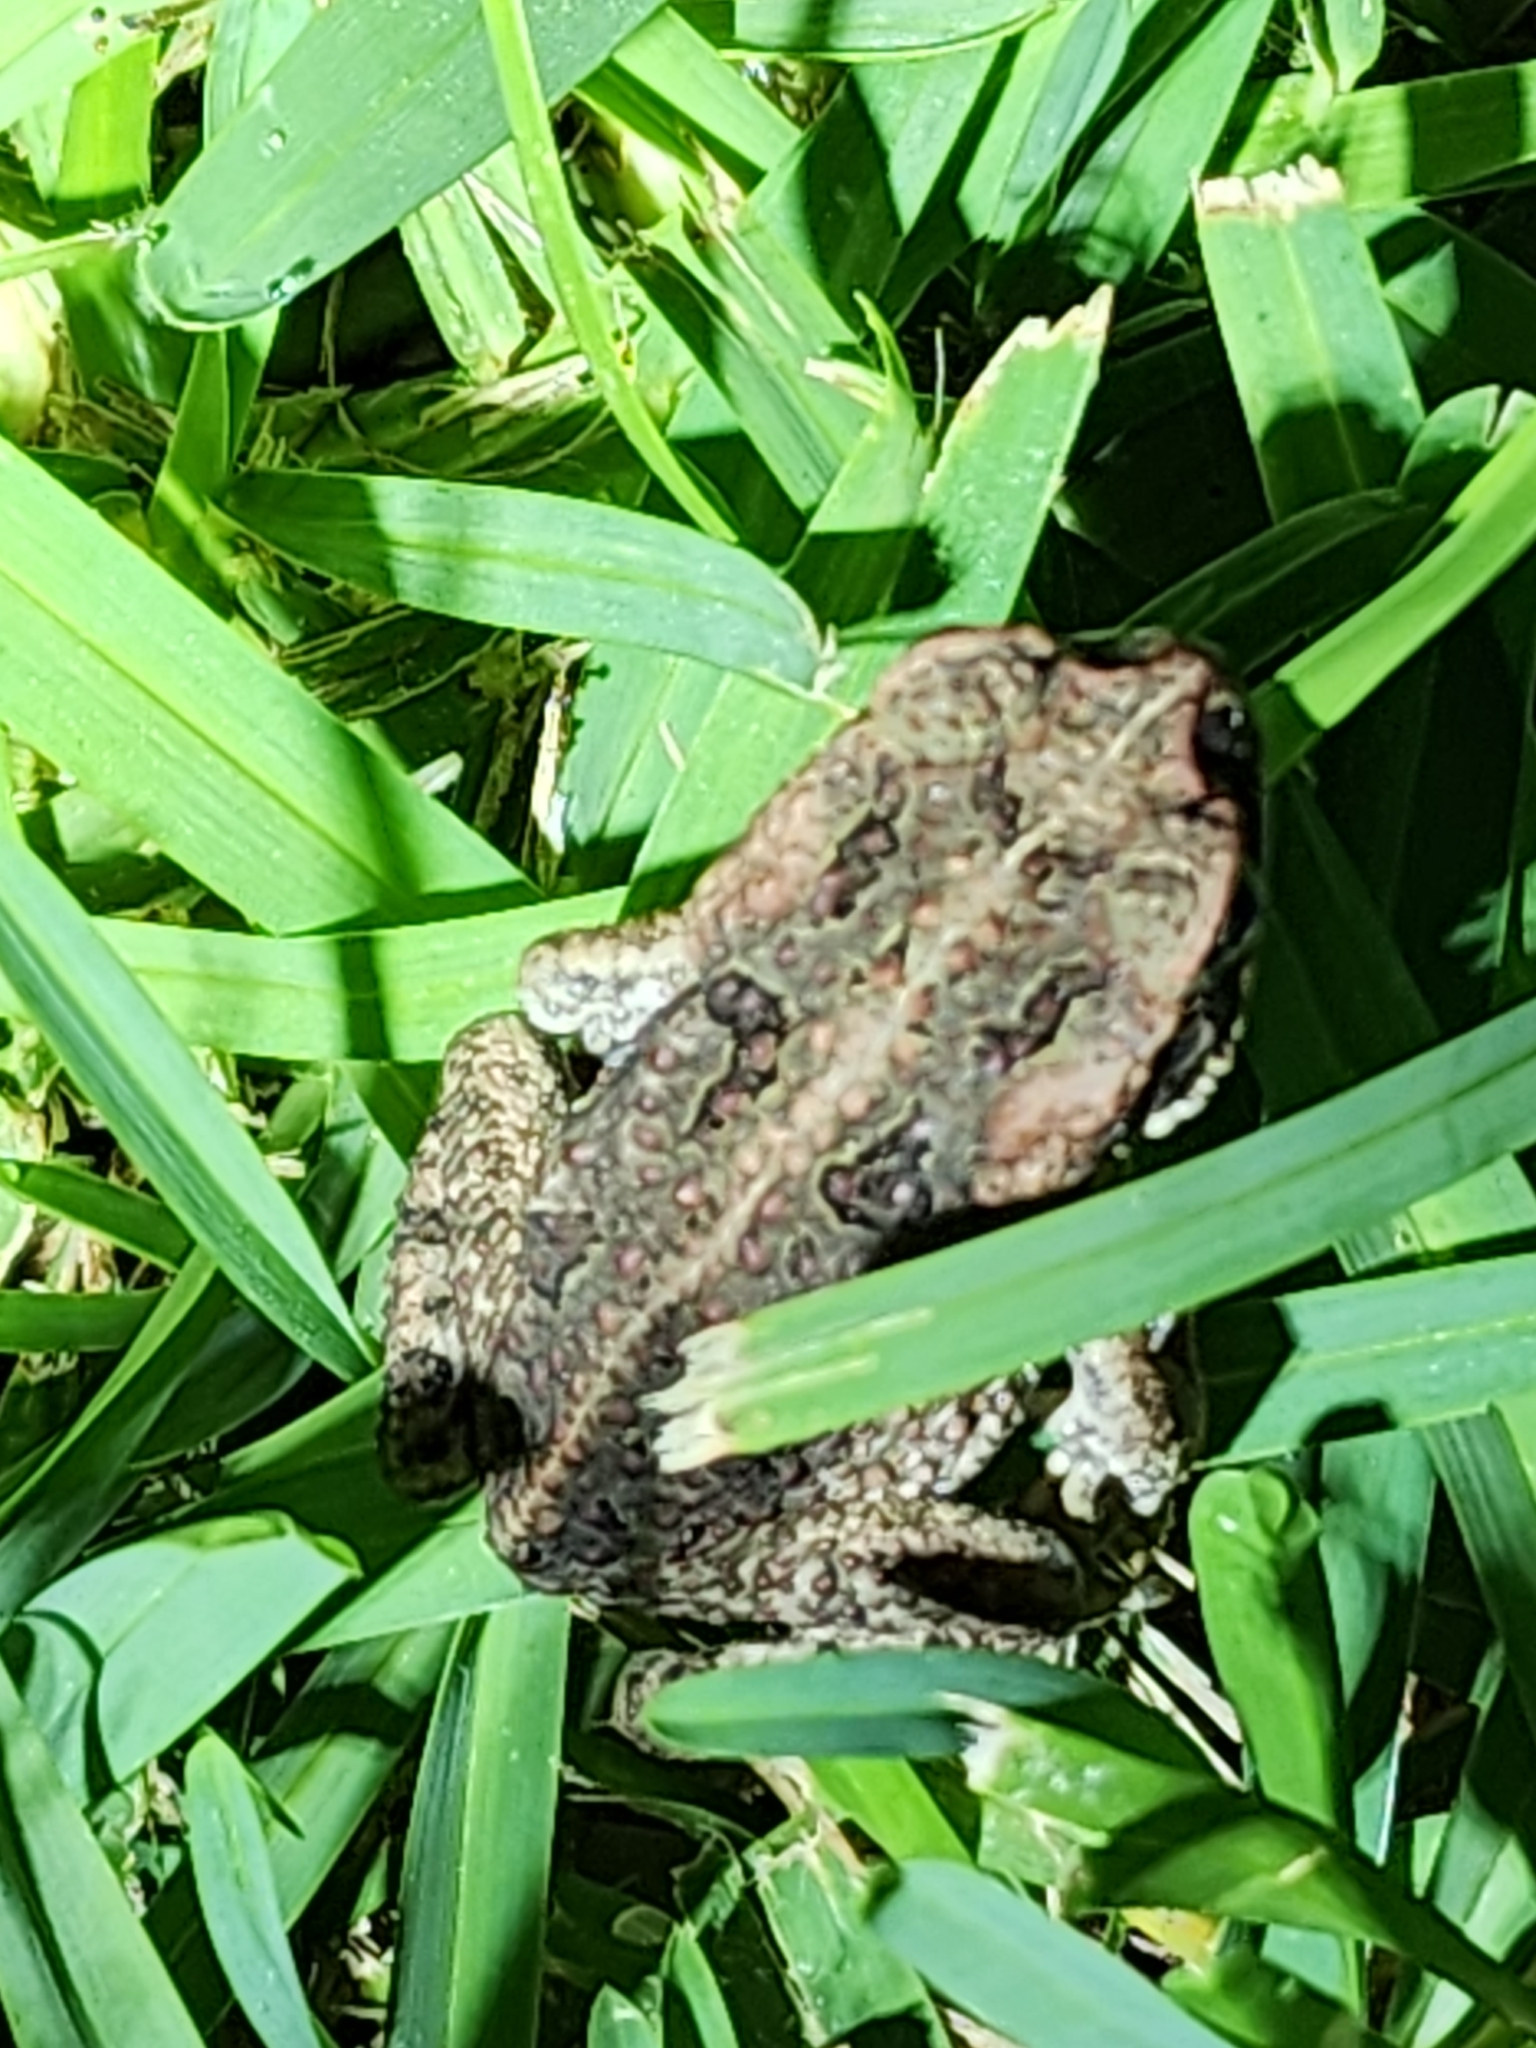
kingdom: Animalia
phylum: Chordata
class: Amphibia
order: Anura
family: Bufonidae
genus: Rhinella
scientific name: Rhinella marina
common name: Cane toad
